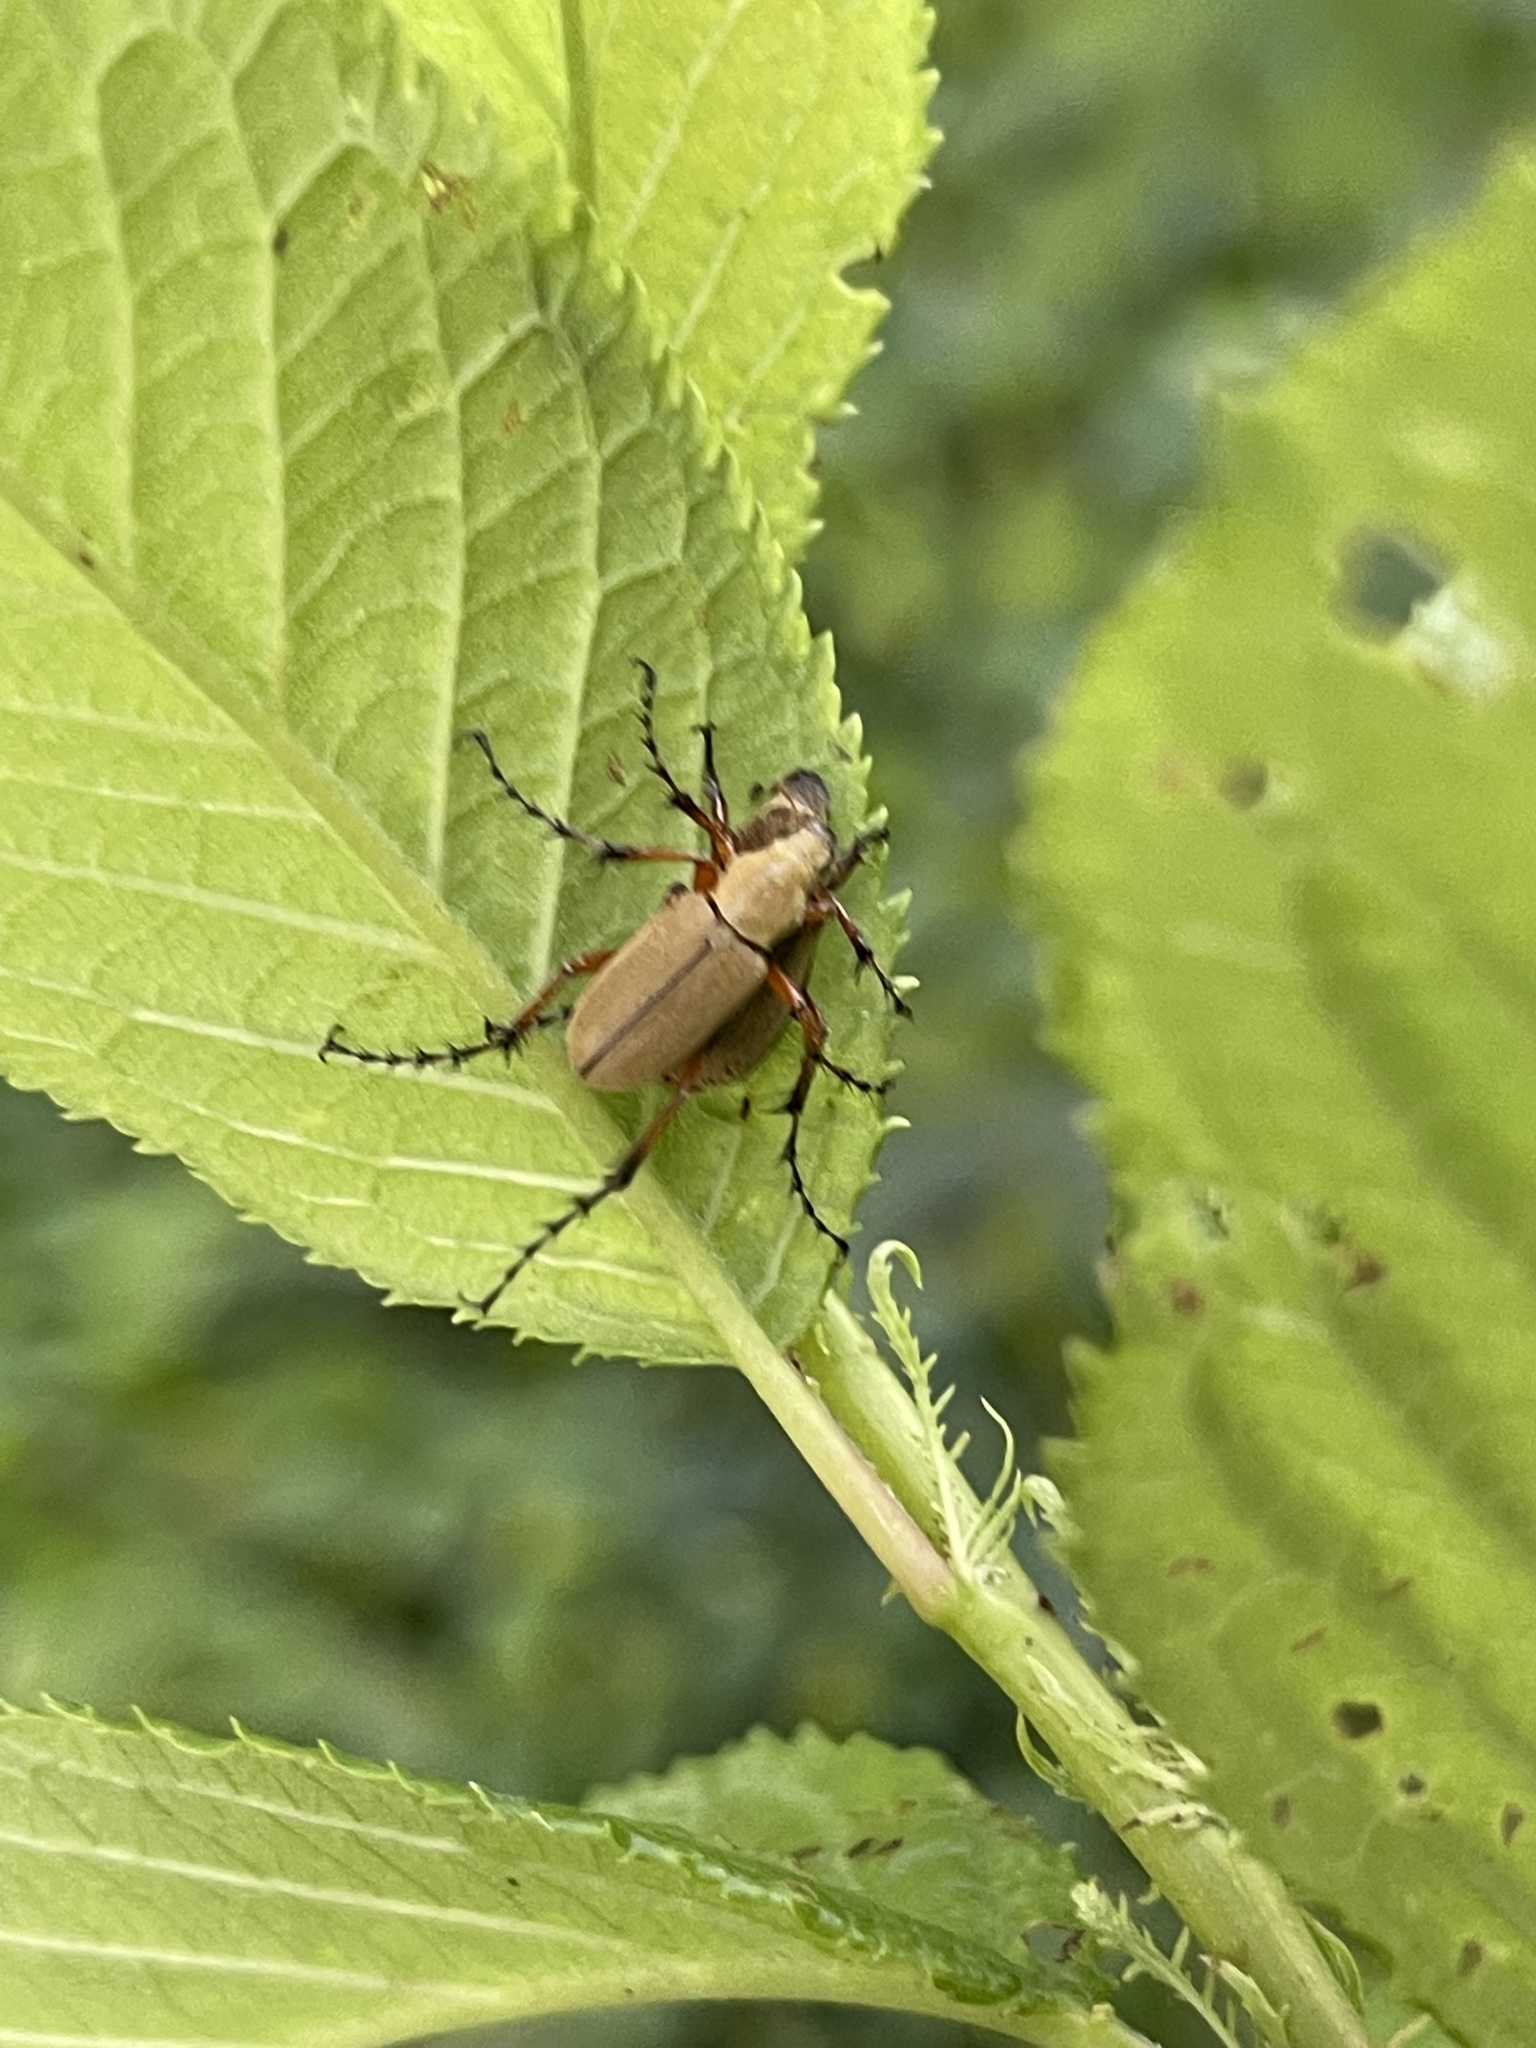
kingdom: Animalia
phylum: Arthropoda
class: Insecta
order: Coleoptera
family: Scarabaeidae
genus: Macrodactylus
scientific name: Macrodactylus subspinosus
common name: American rose chafer
